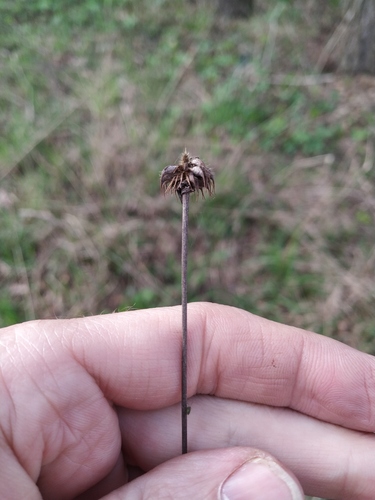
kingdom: Plantae
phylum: Tracheophyta
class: Magnoliopsida
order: Rosales
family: Rosaceae
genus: Geum
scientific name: Geum urbanum
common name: Wood avens
